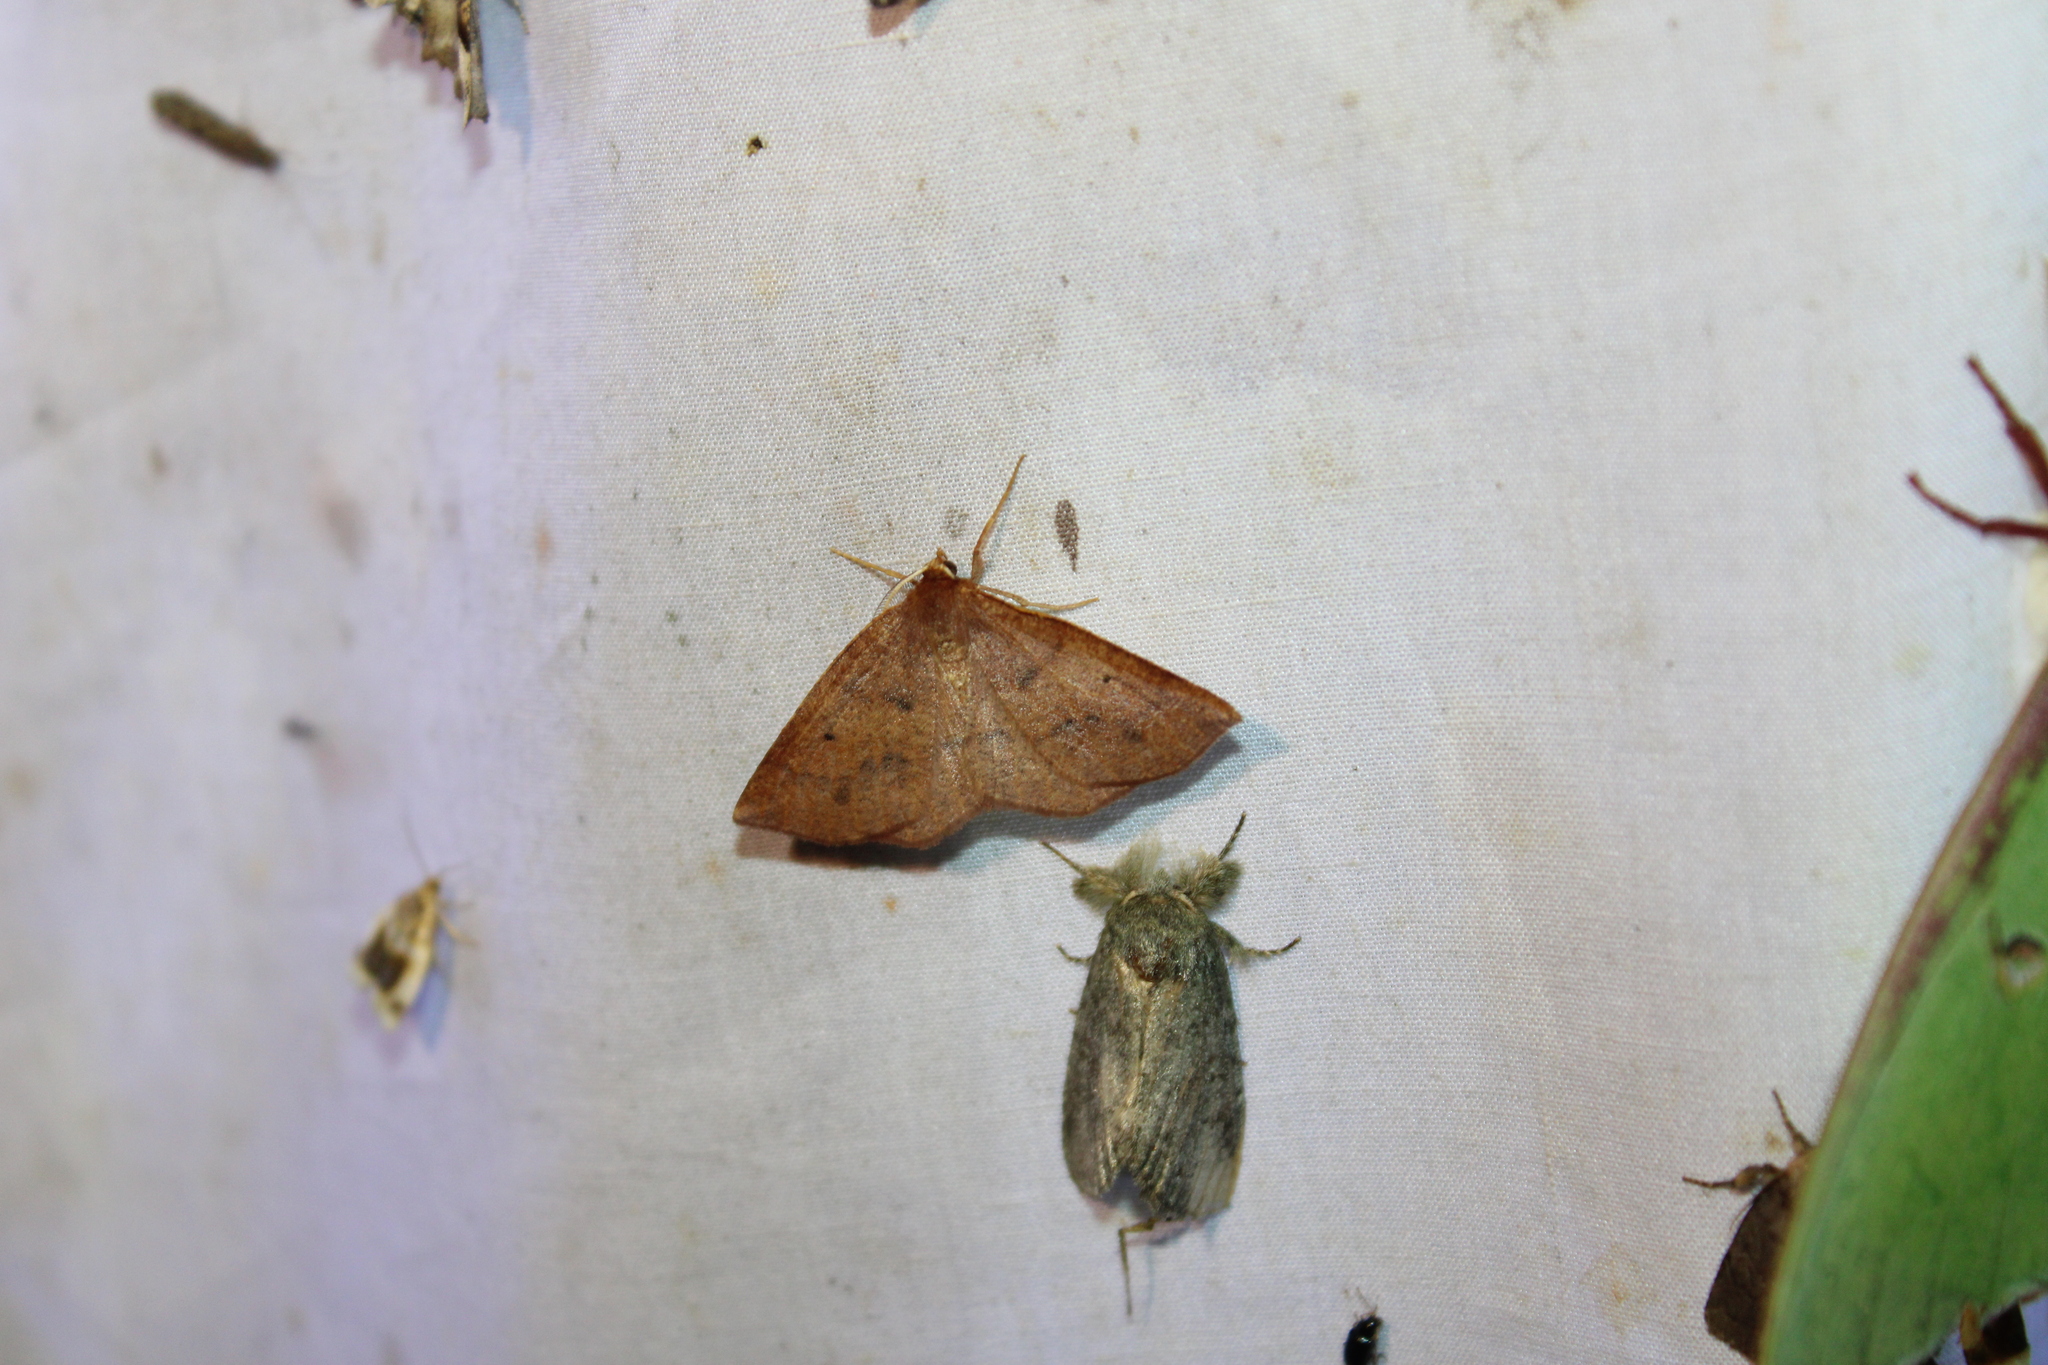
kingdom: Animalia
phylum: Arthropoda
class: Insecta
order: Lepidoptera
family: Geometridae
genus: Metarranthis
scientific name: Metarranthis duaria
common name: Ruddy metarranthis moth
